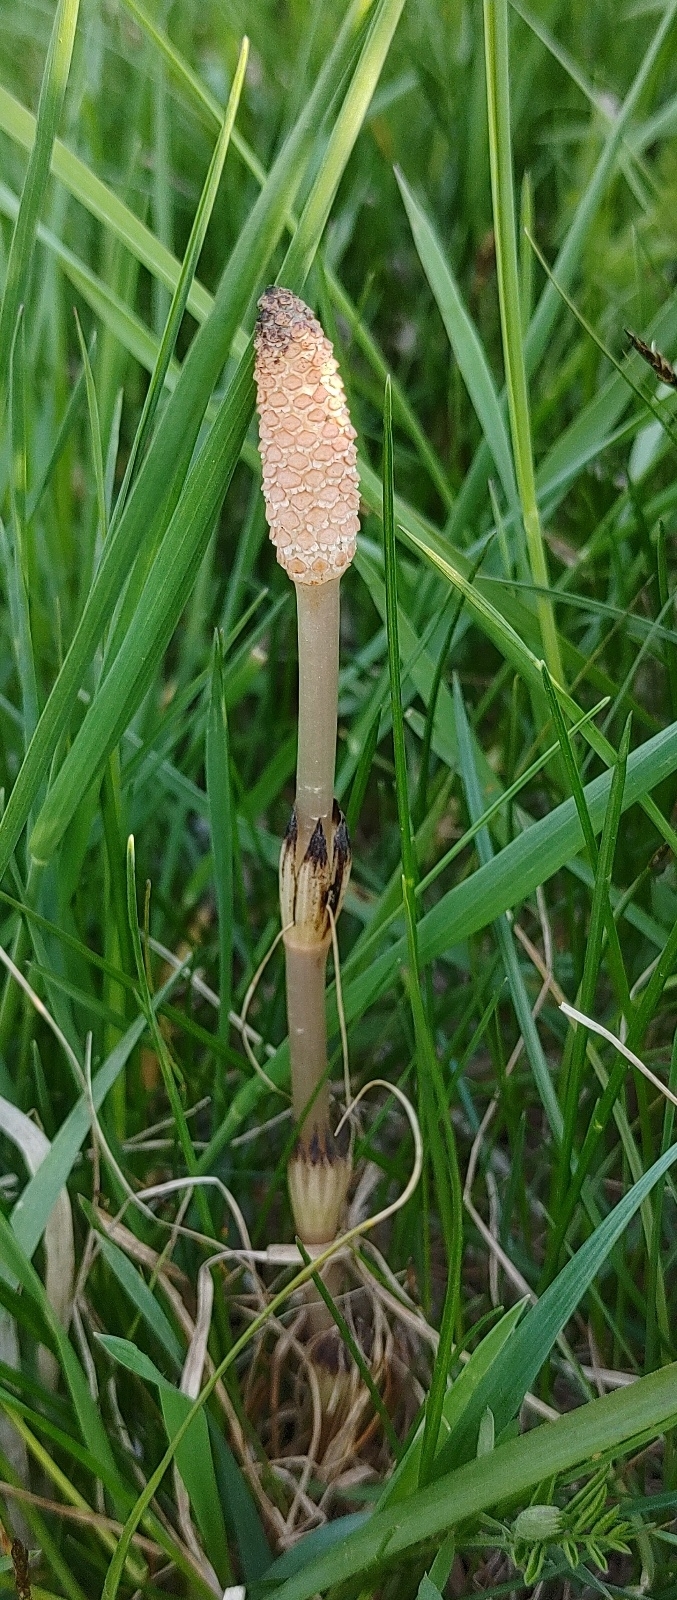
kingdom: Plantae
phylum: Tracheophyta
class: Polypodiopsida
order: Equisetales
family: Equisetaceae
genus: Equisetum
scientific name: Equisetum arvense
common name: Field horsetail
